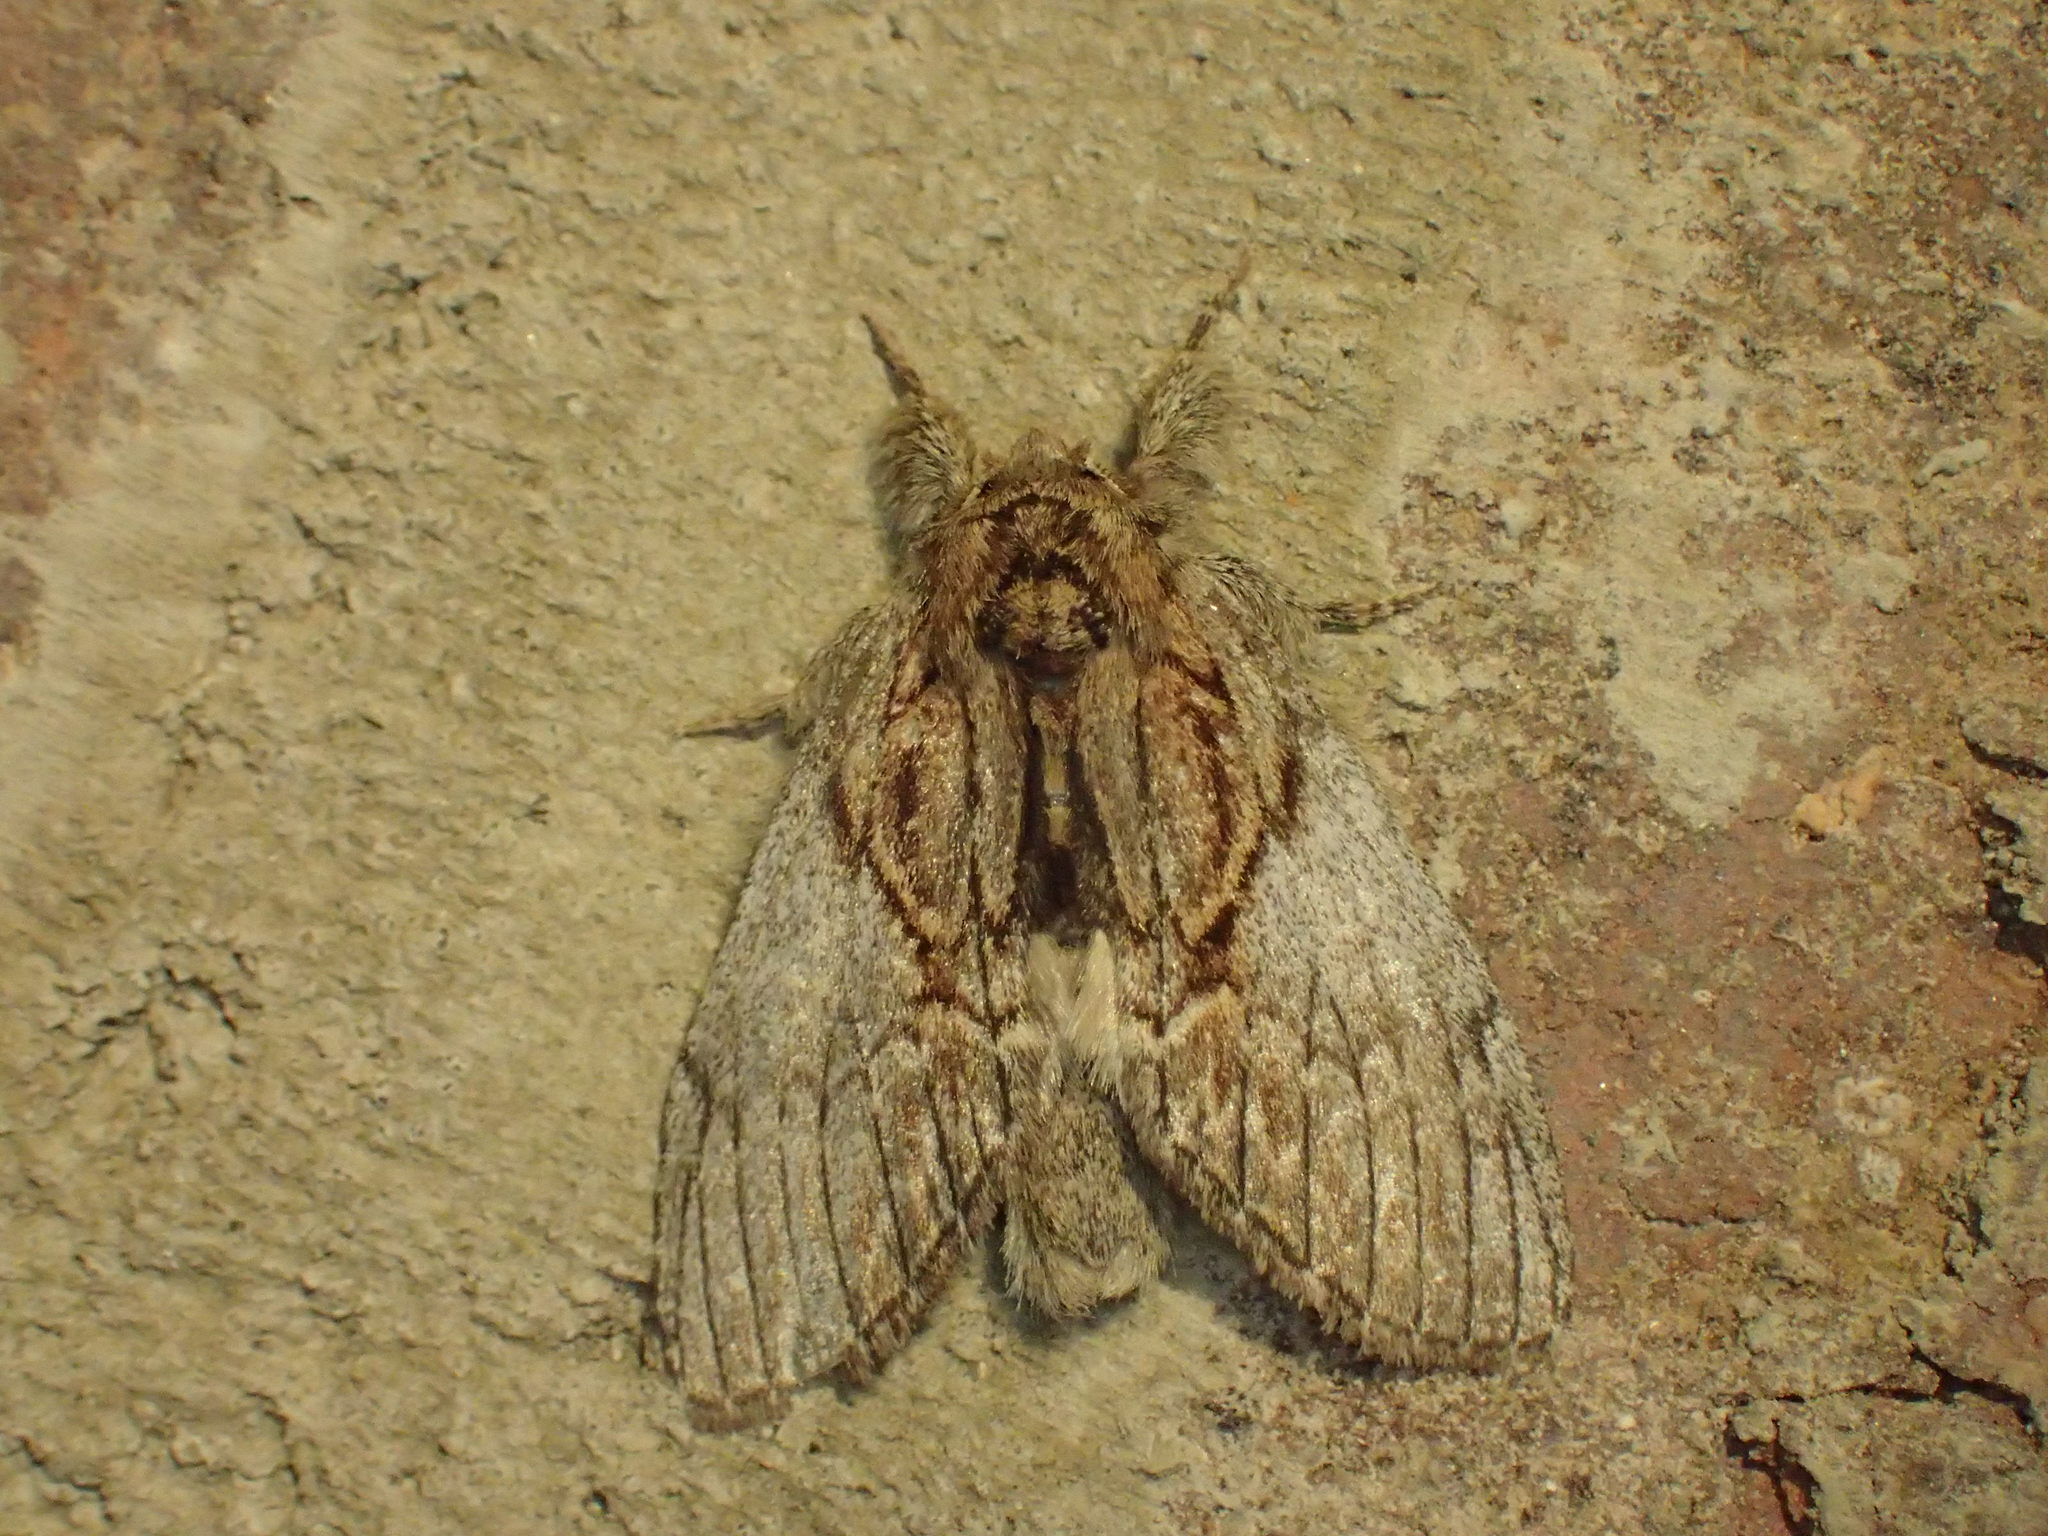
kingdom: Animalia
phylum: Arthropoda
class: Insecta
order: Lepidoptera
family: Notodontidae
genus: Peridea
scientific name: Peridea basitriens
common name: Oval-based prominent
